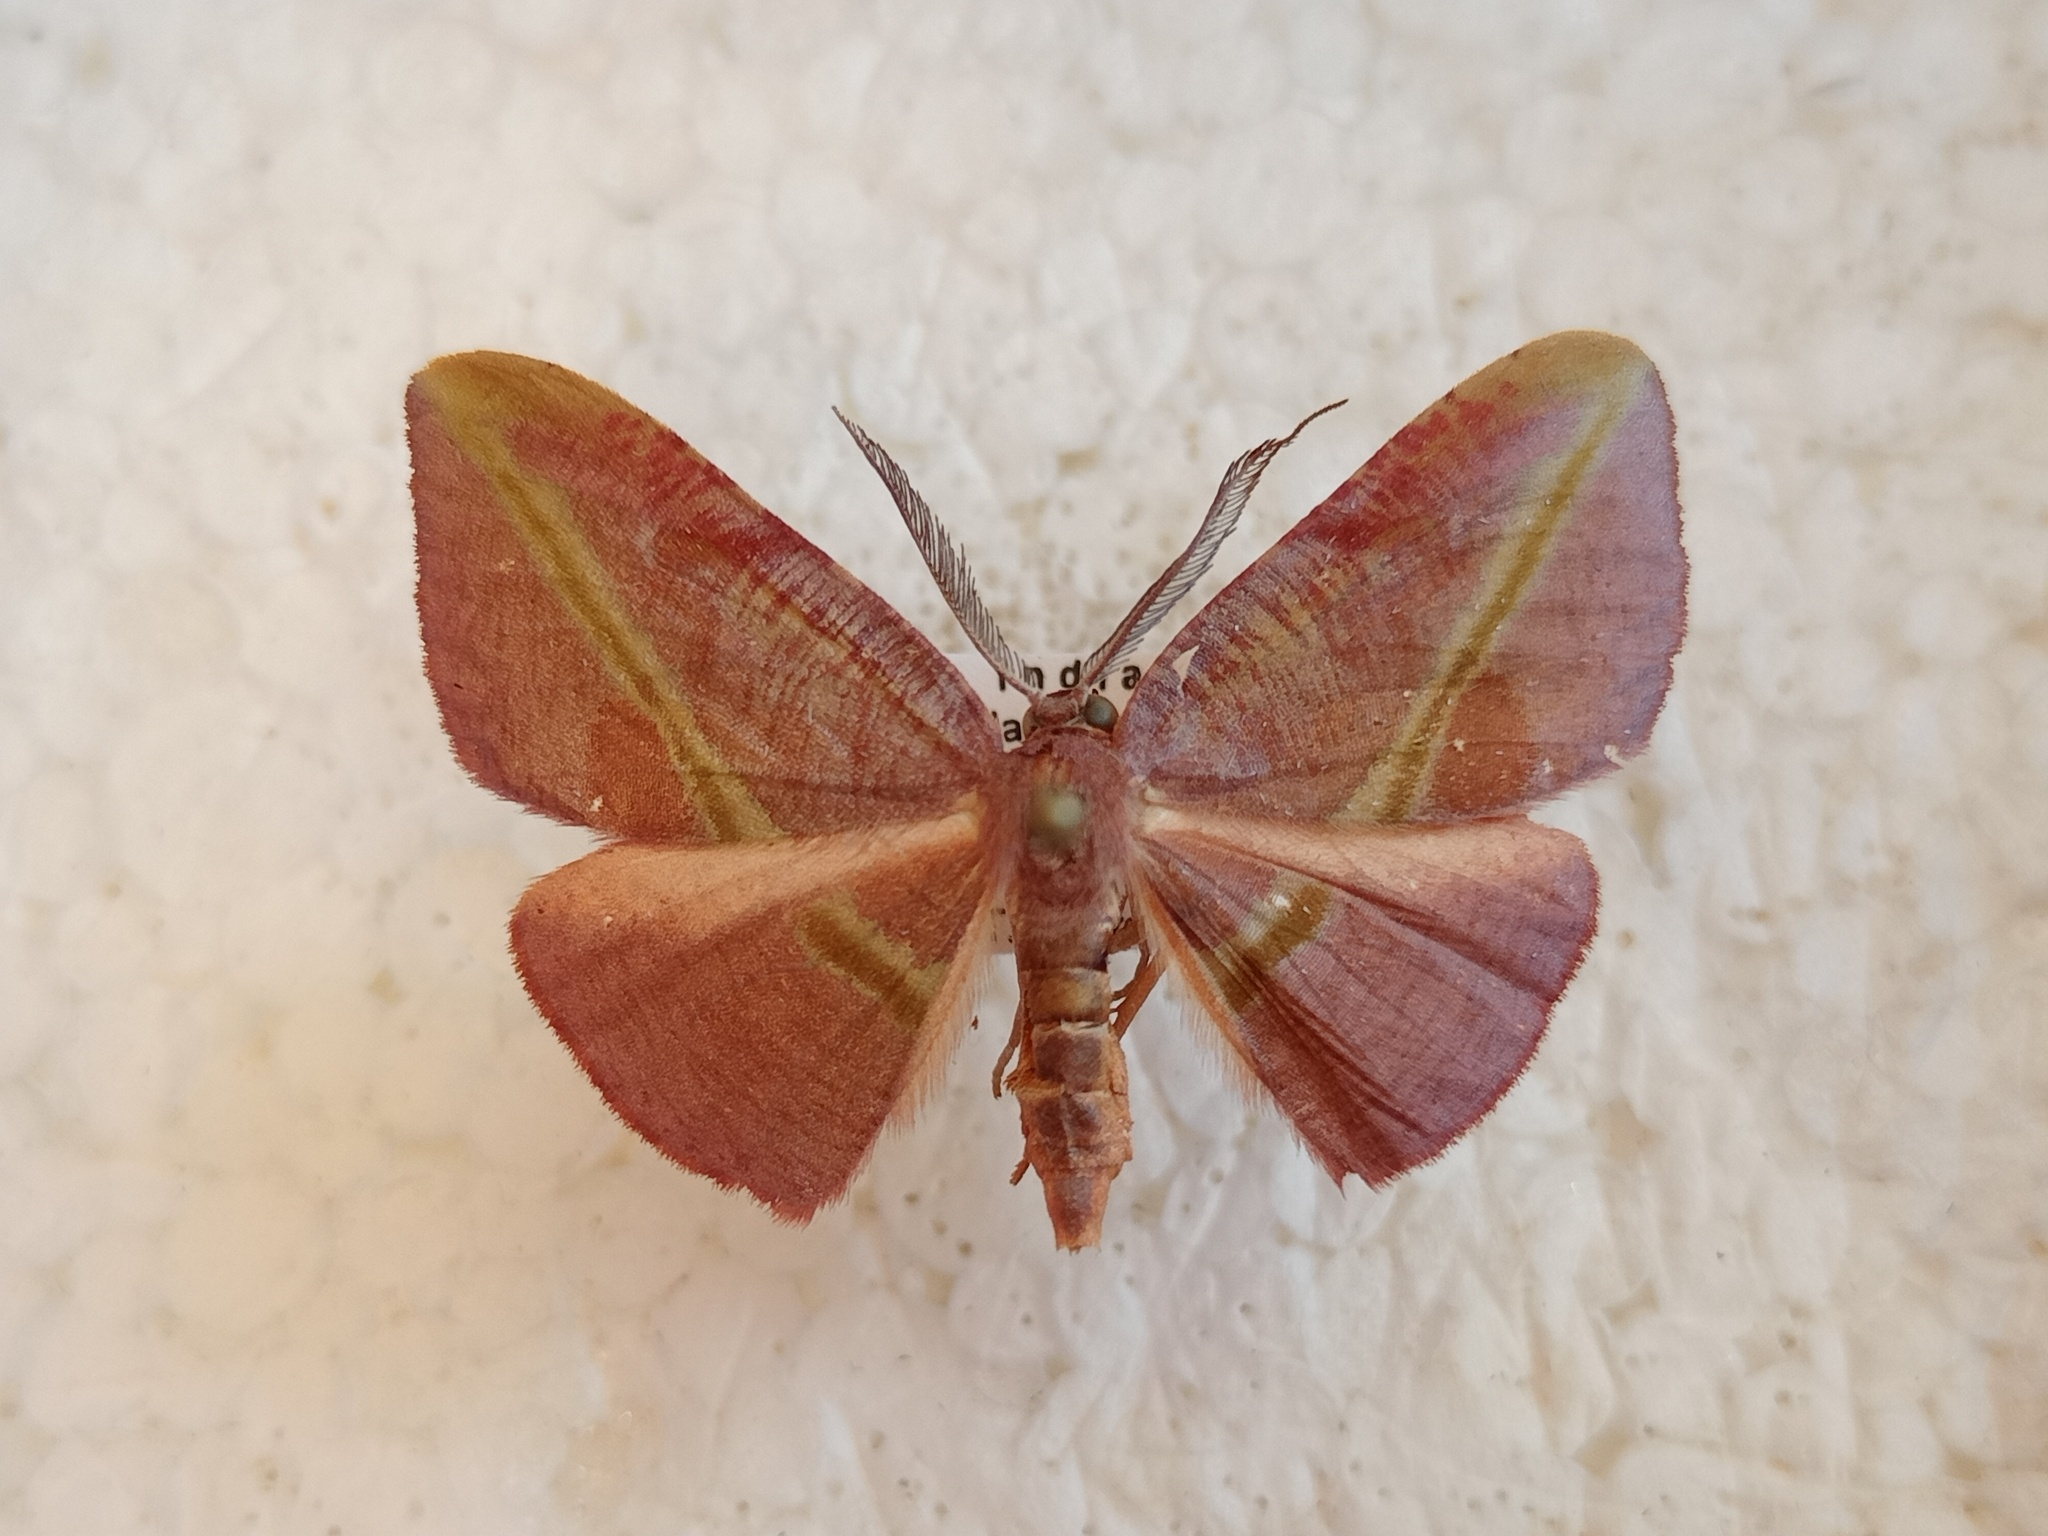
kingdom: Animalia
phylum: Arthropoda
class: Insecta
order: Lepidoptera
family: Geometridae
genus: Hypochrosis
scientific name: Hypochrosis iris
